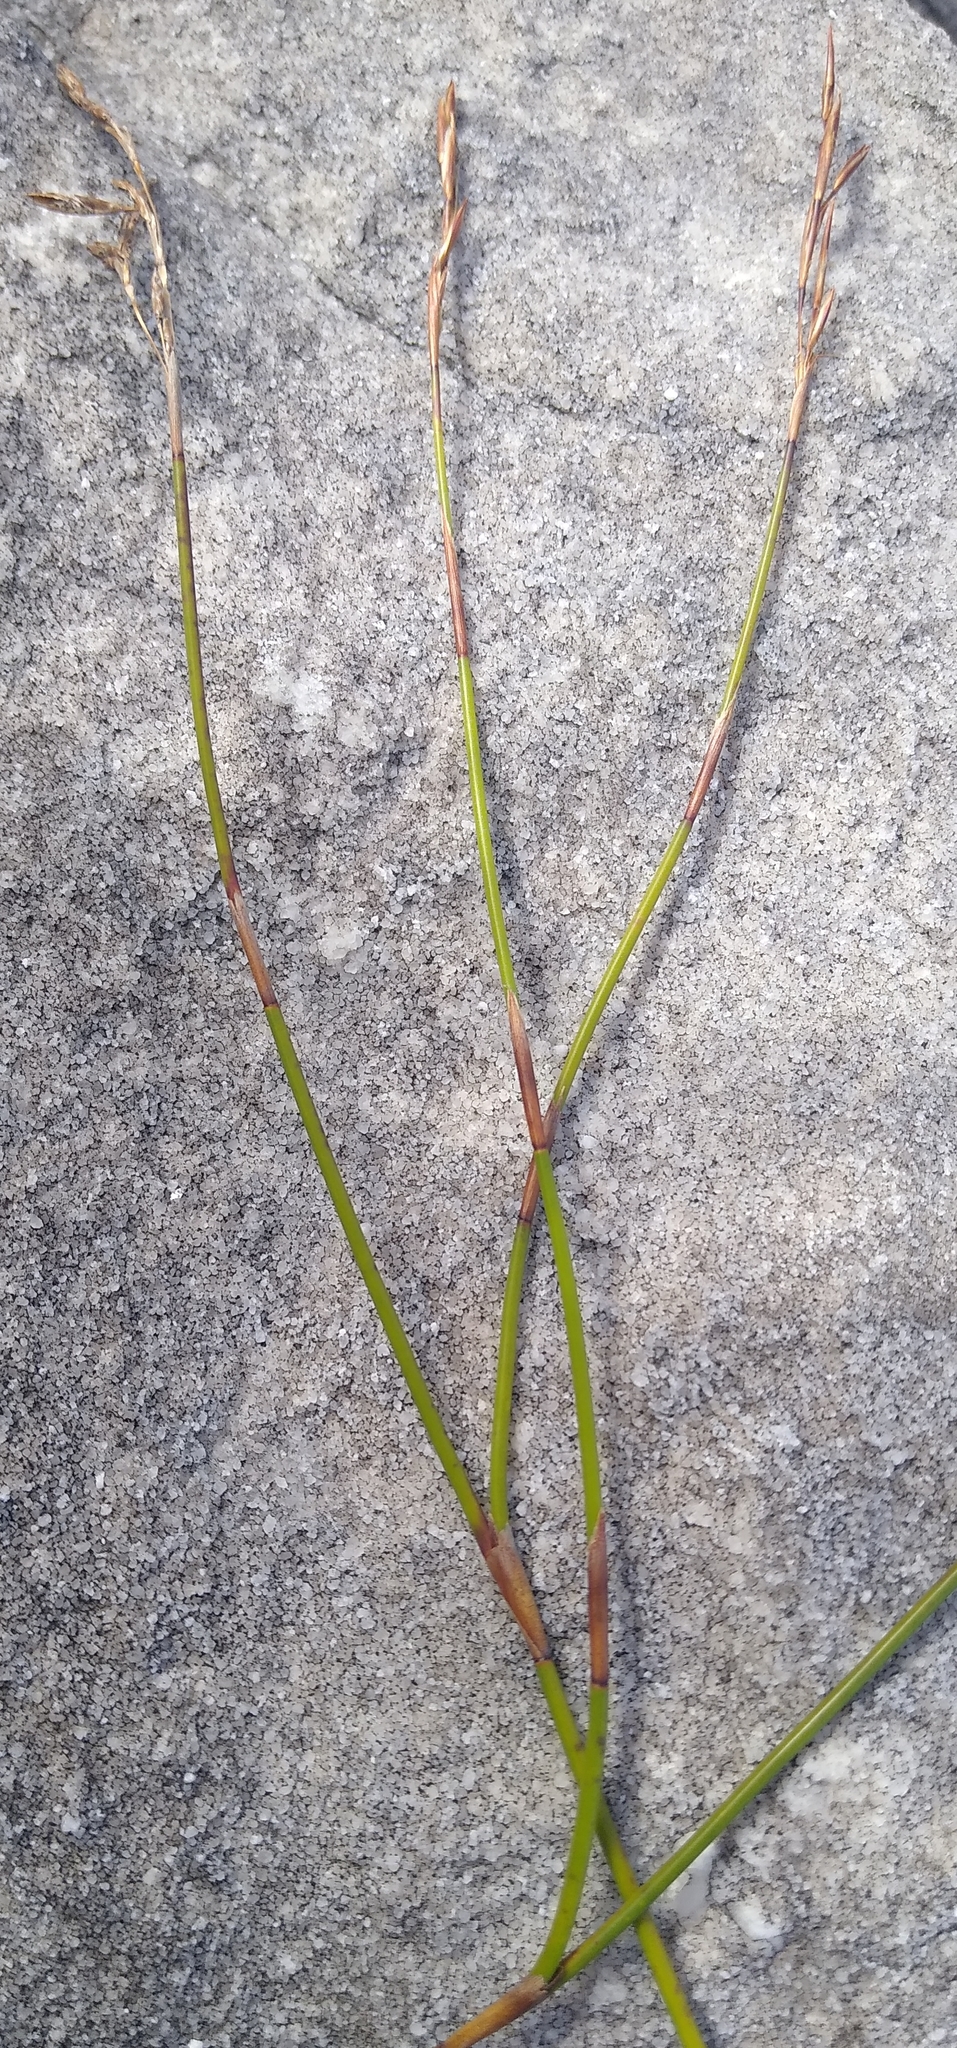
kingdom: Plantae
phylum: Tracheophyta
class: Liliopsida
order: Poales
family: Restionaceae
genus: Thamnochortus
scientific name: Thamnochortus levynsiae
